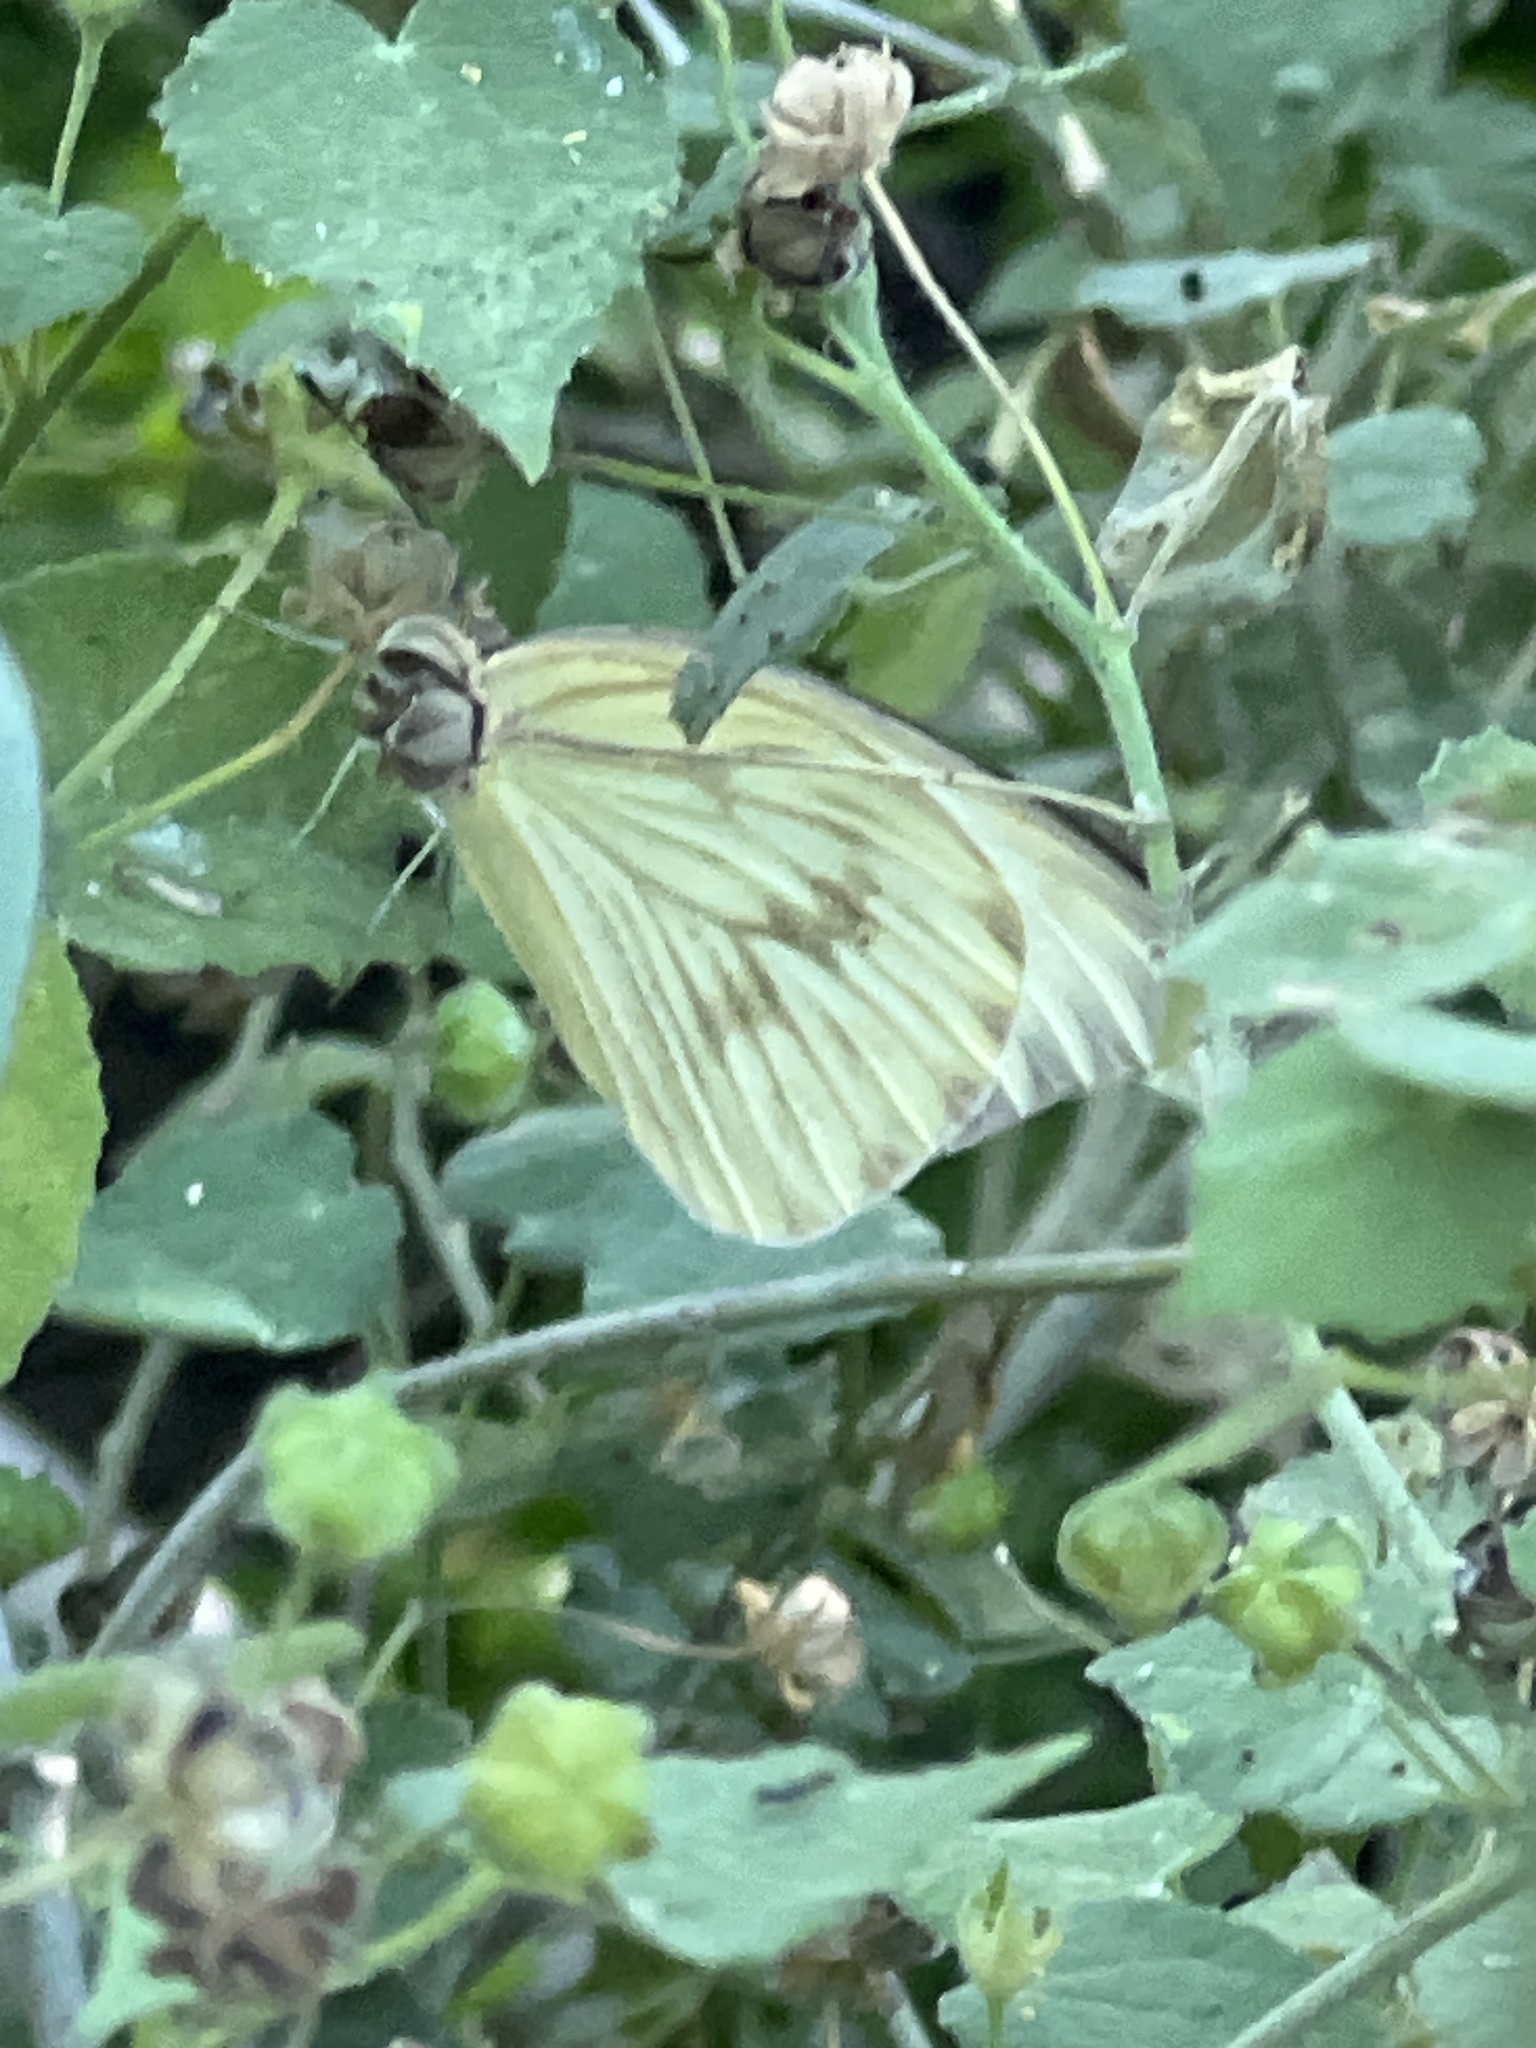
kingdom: Animalia
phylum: Arthropoda
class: Insecta
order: Lepidoptera
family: Pieridae
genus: Ascia
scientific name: Ascia monuste
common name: Great southern white
